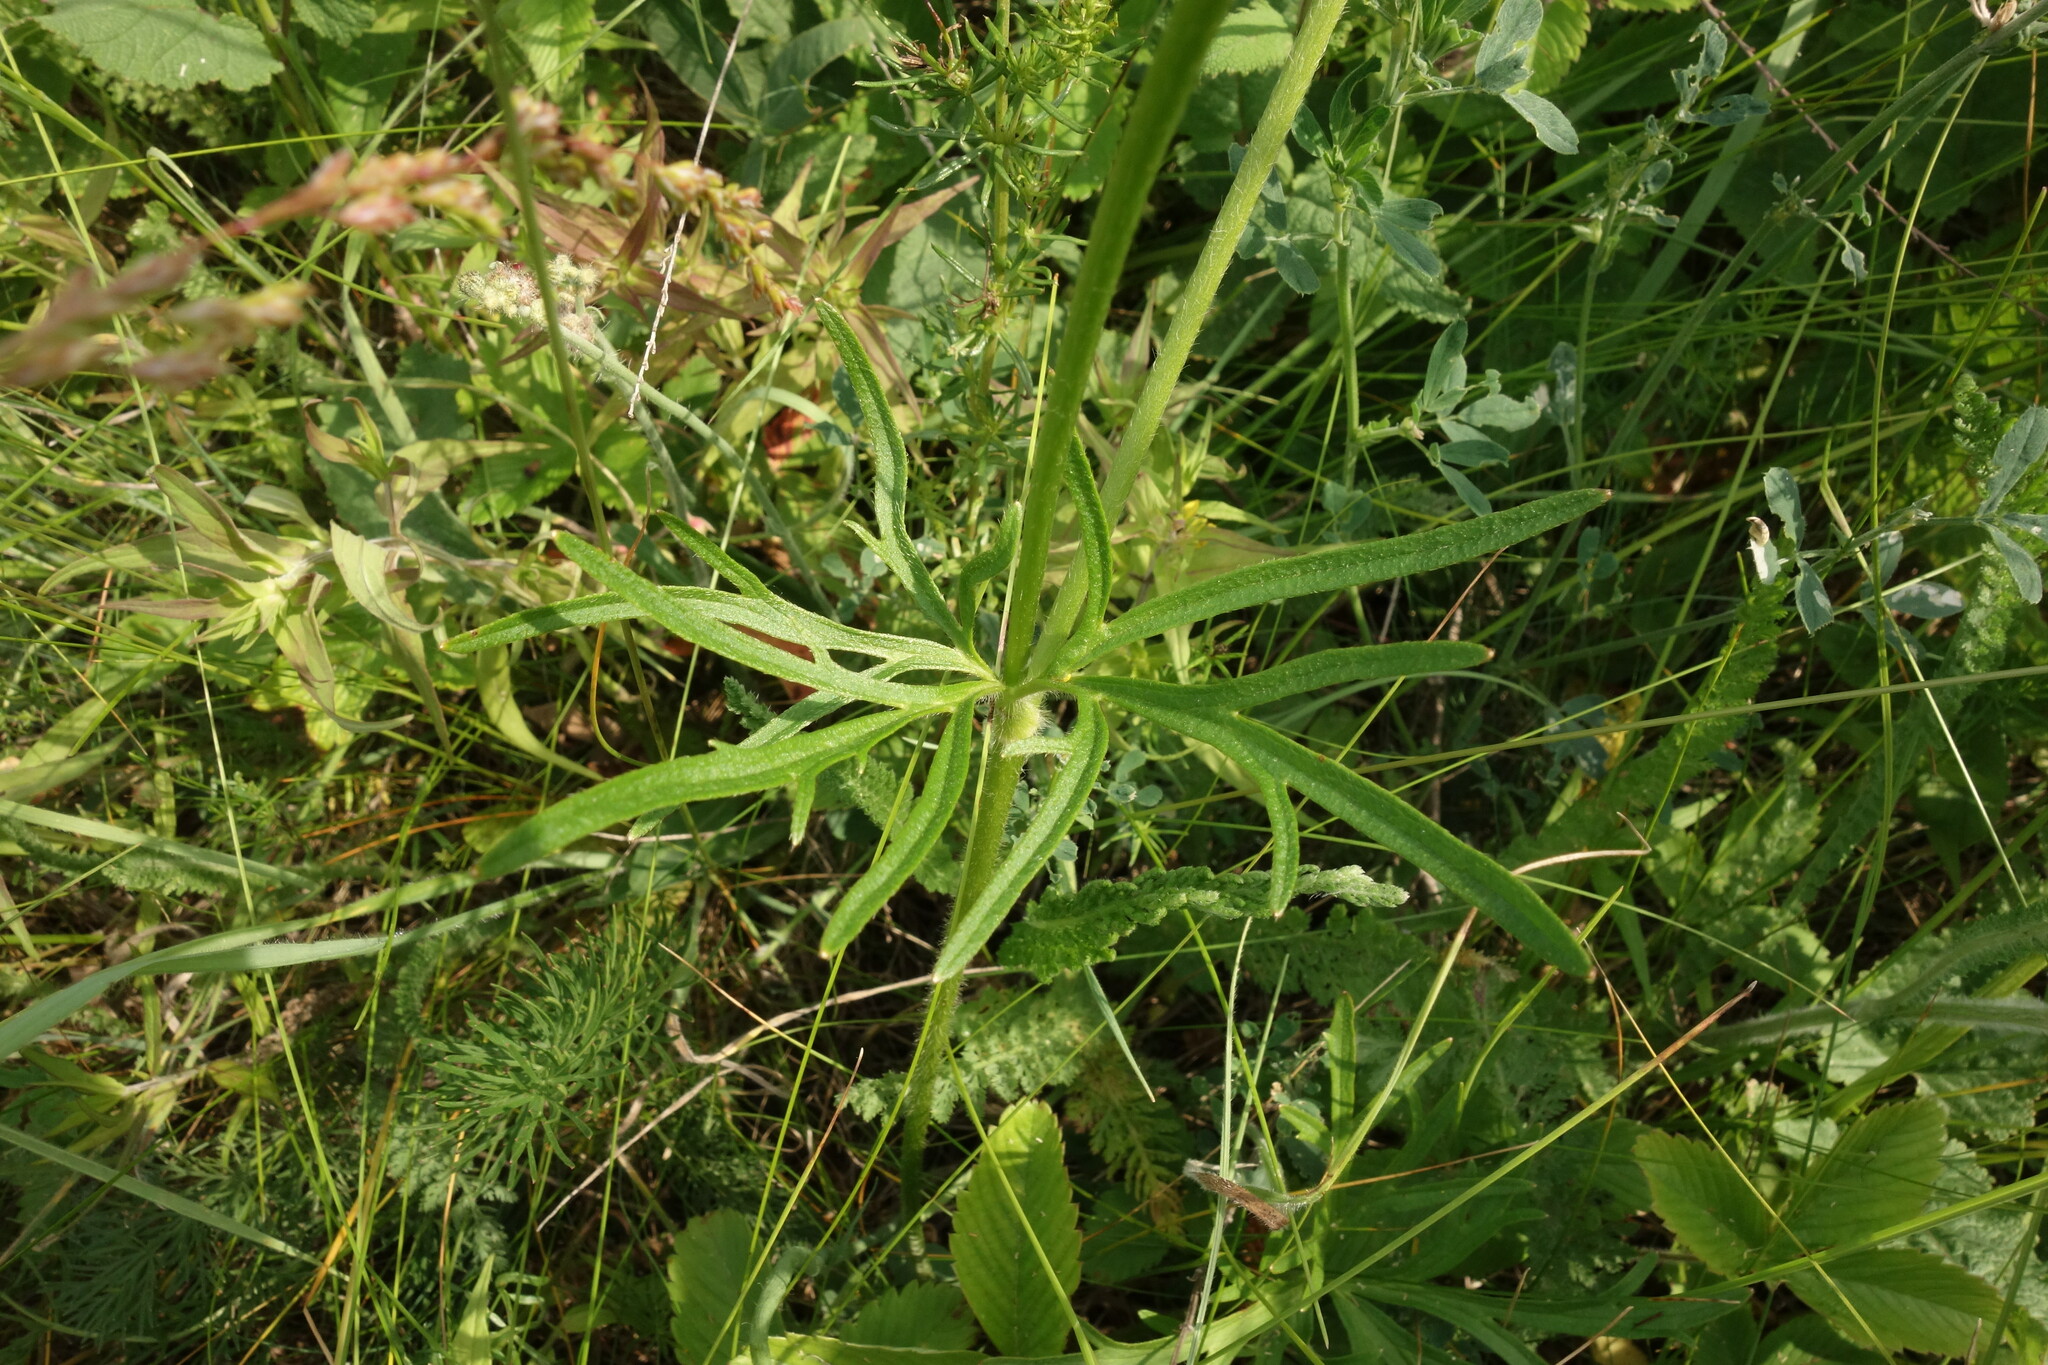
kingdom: Plantae
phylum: Tracheophyta
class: Magnoliopsida
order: Ranunculales
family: Ranunculaceae
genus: Ranunculus
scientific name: Ranunculus polyanthemos
